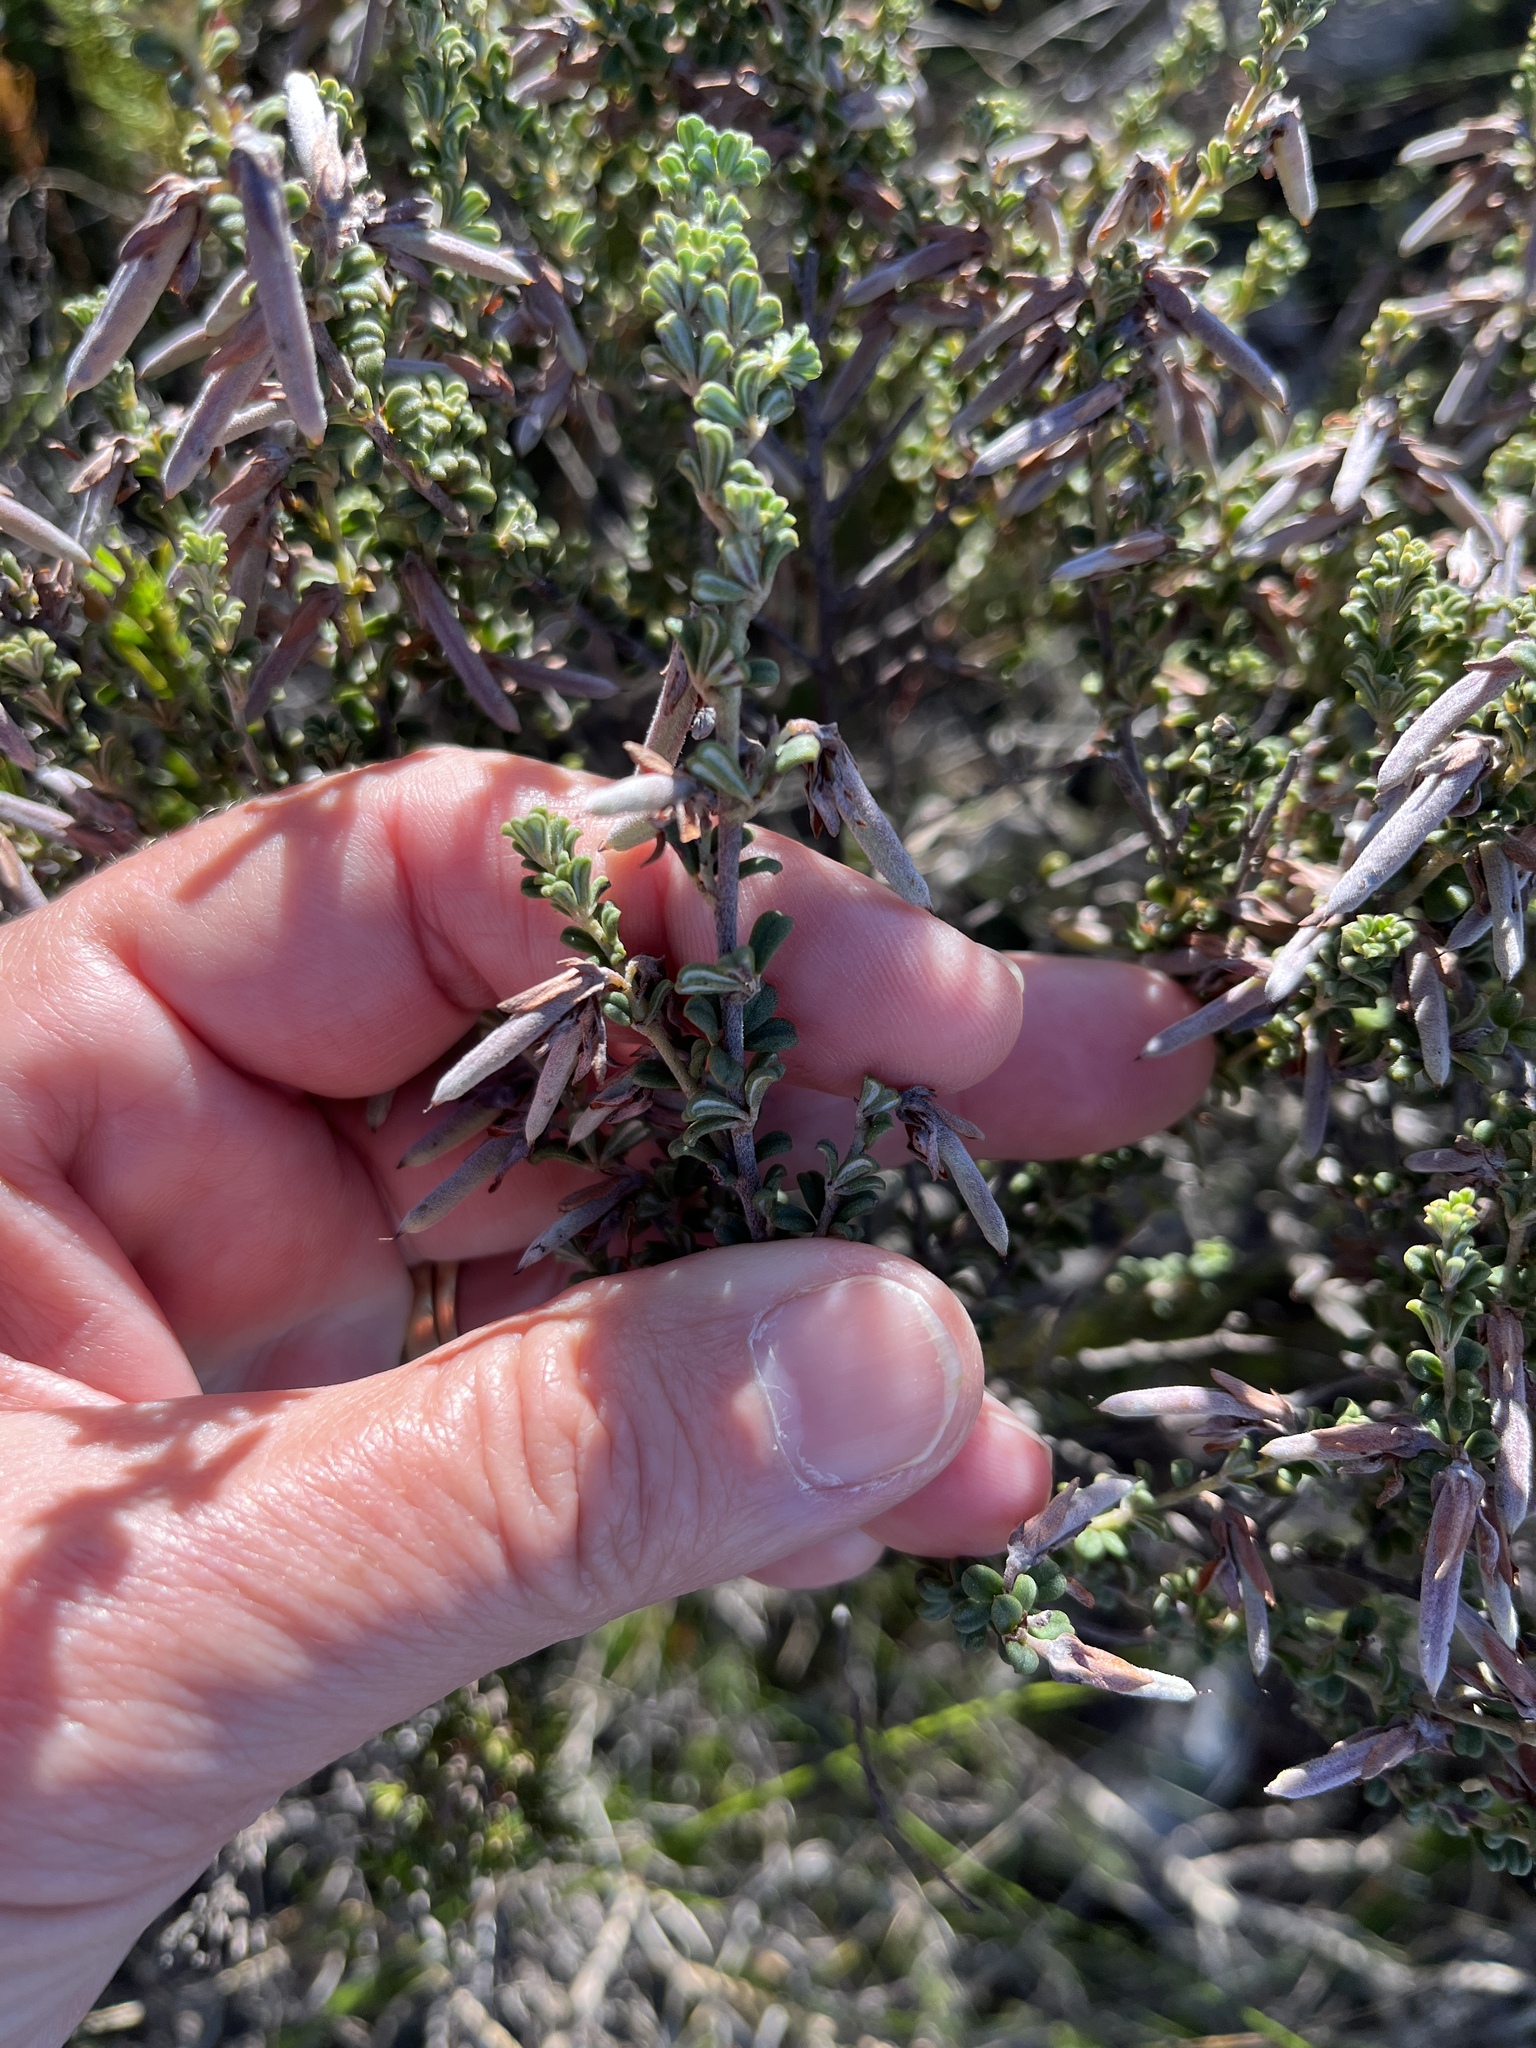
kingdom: Plantae
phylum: Tracheophyta
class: Magnoliopsida
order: Fabales
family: Fabaceae
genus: Indigofera
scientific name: Indigofera hamulosa
